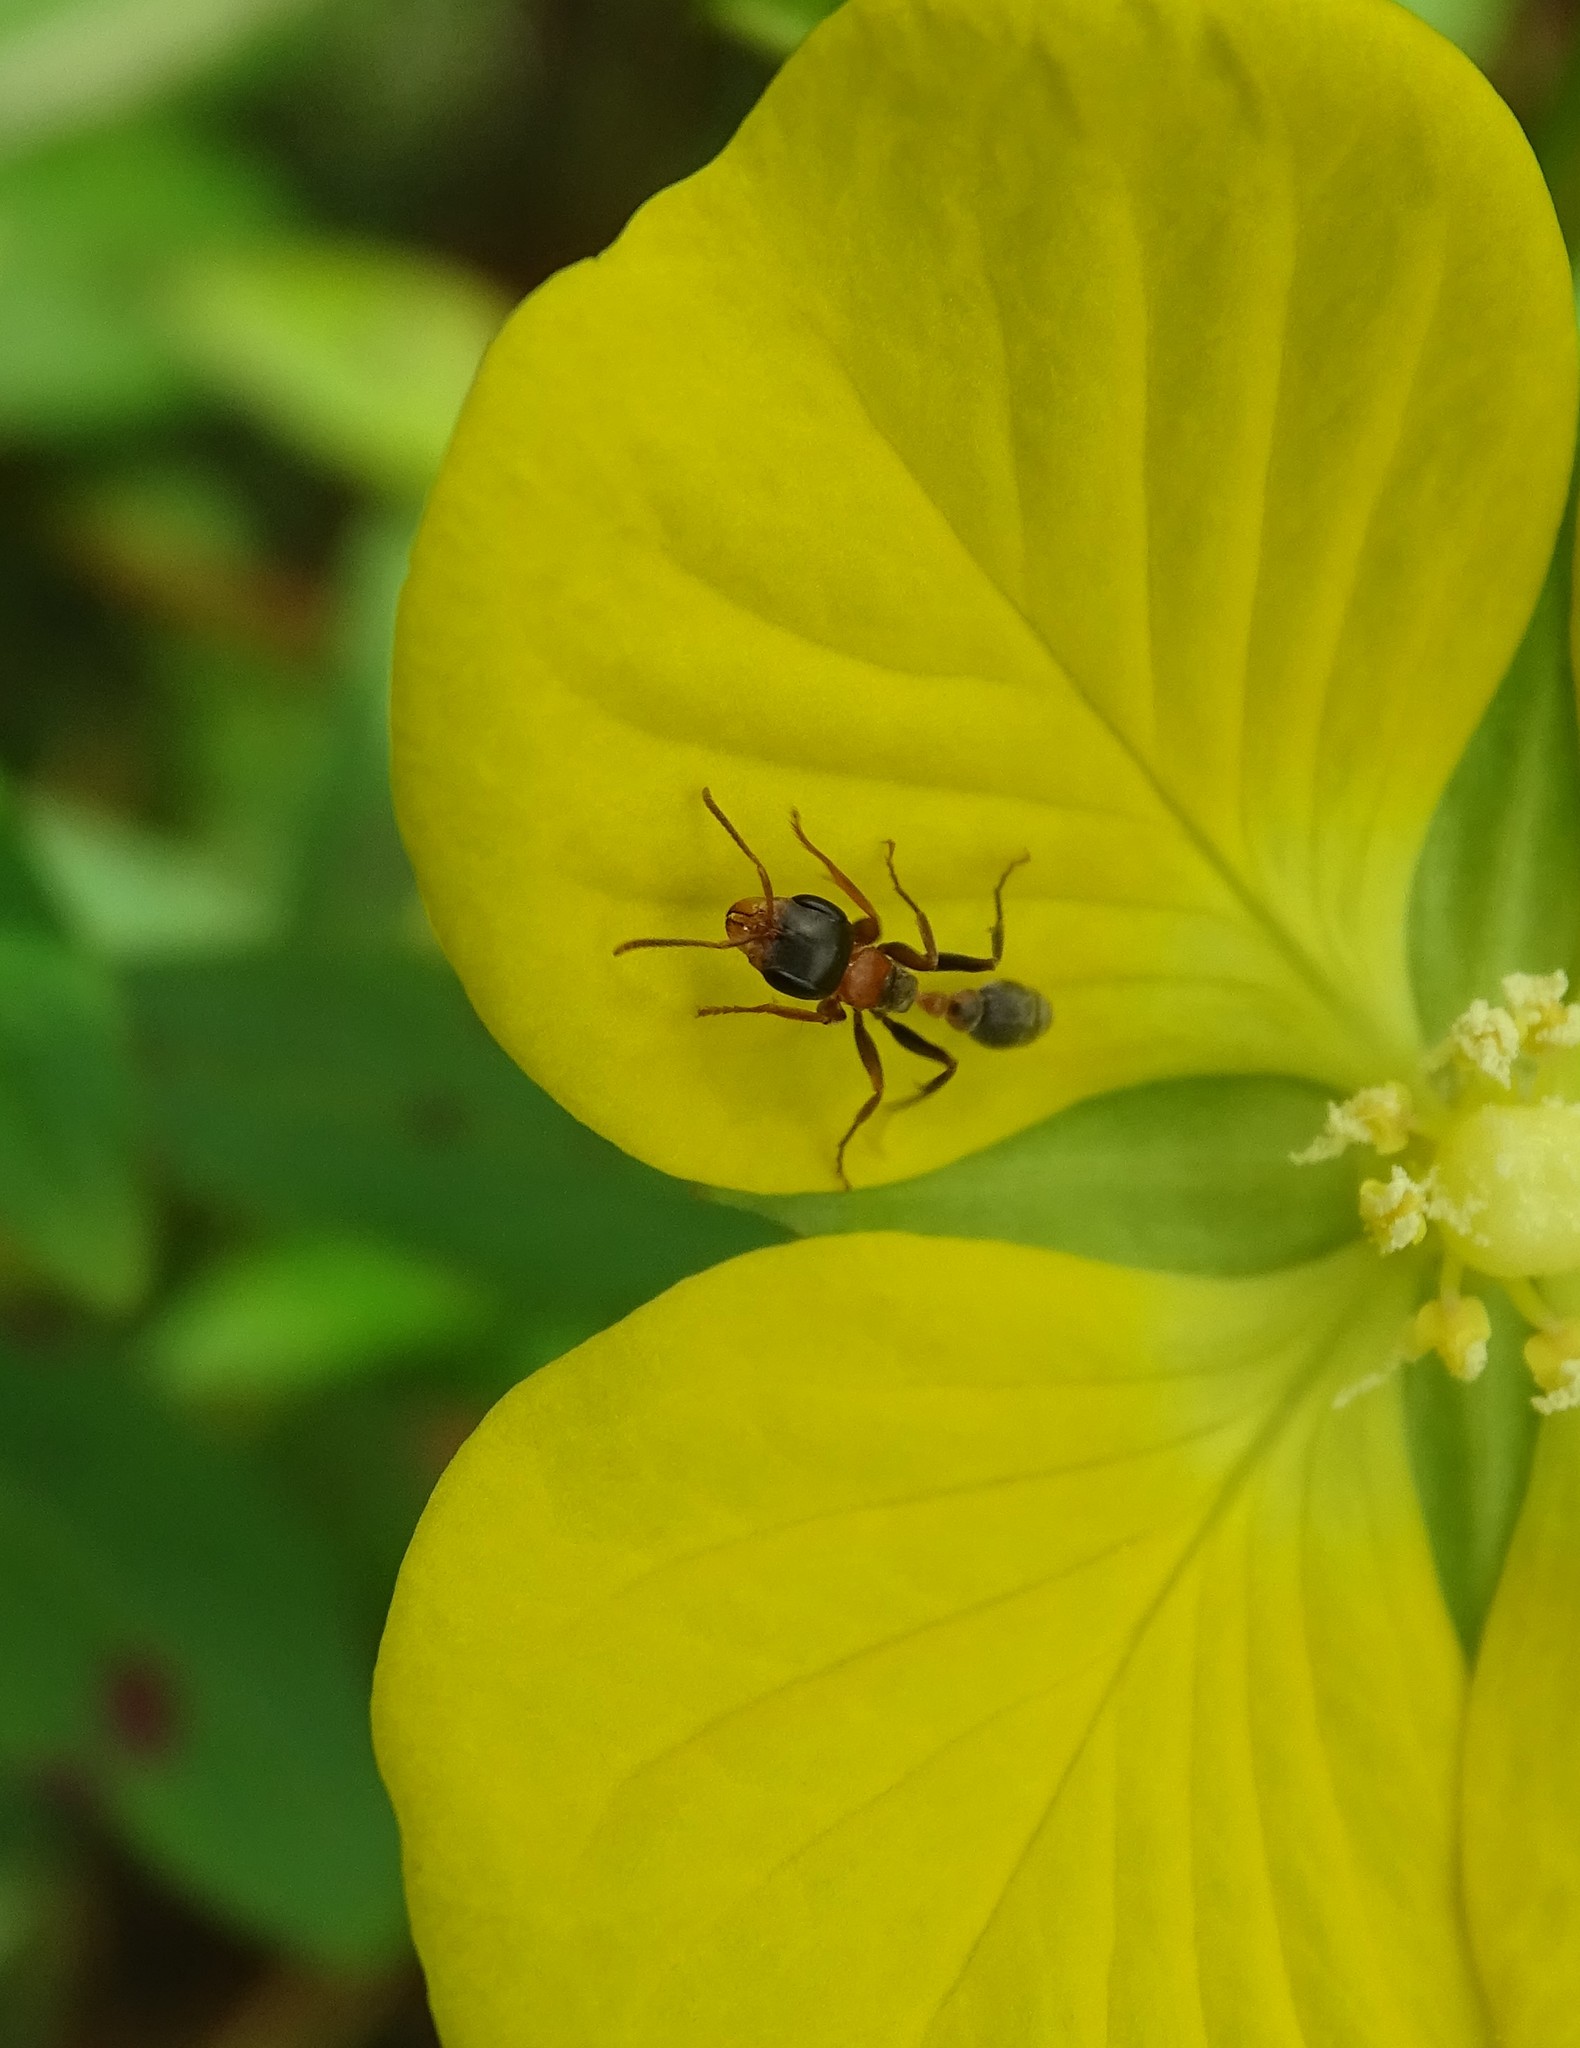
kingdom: Animalia
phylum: Arthropoda
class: Insecta
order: Hymenoptera
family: Formicidae
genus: Pseudomyrmex
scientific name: Pseudomyrmex gracilis
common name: Graceful twig ant
